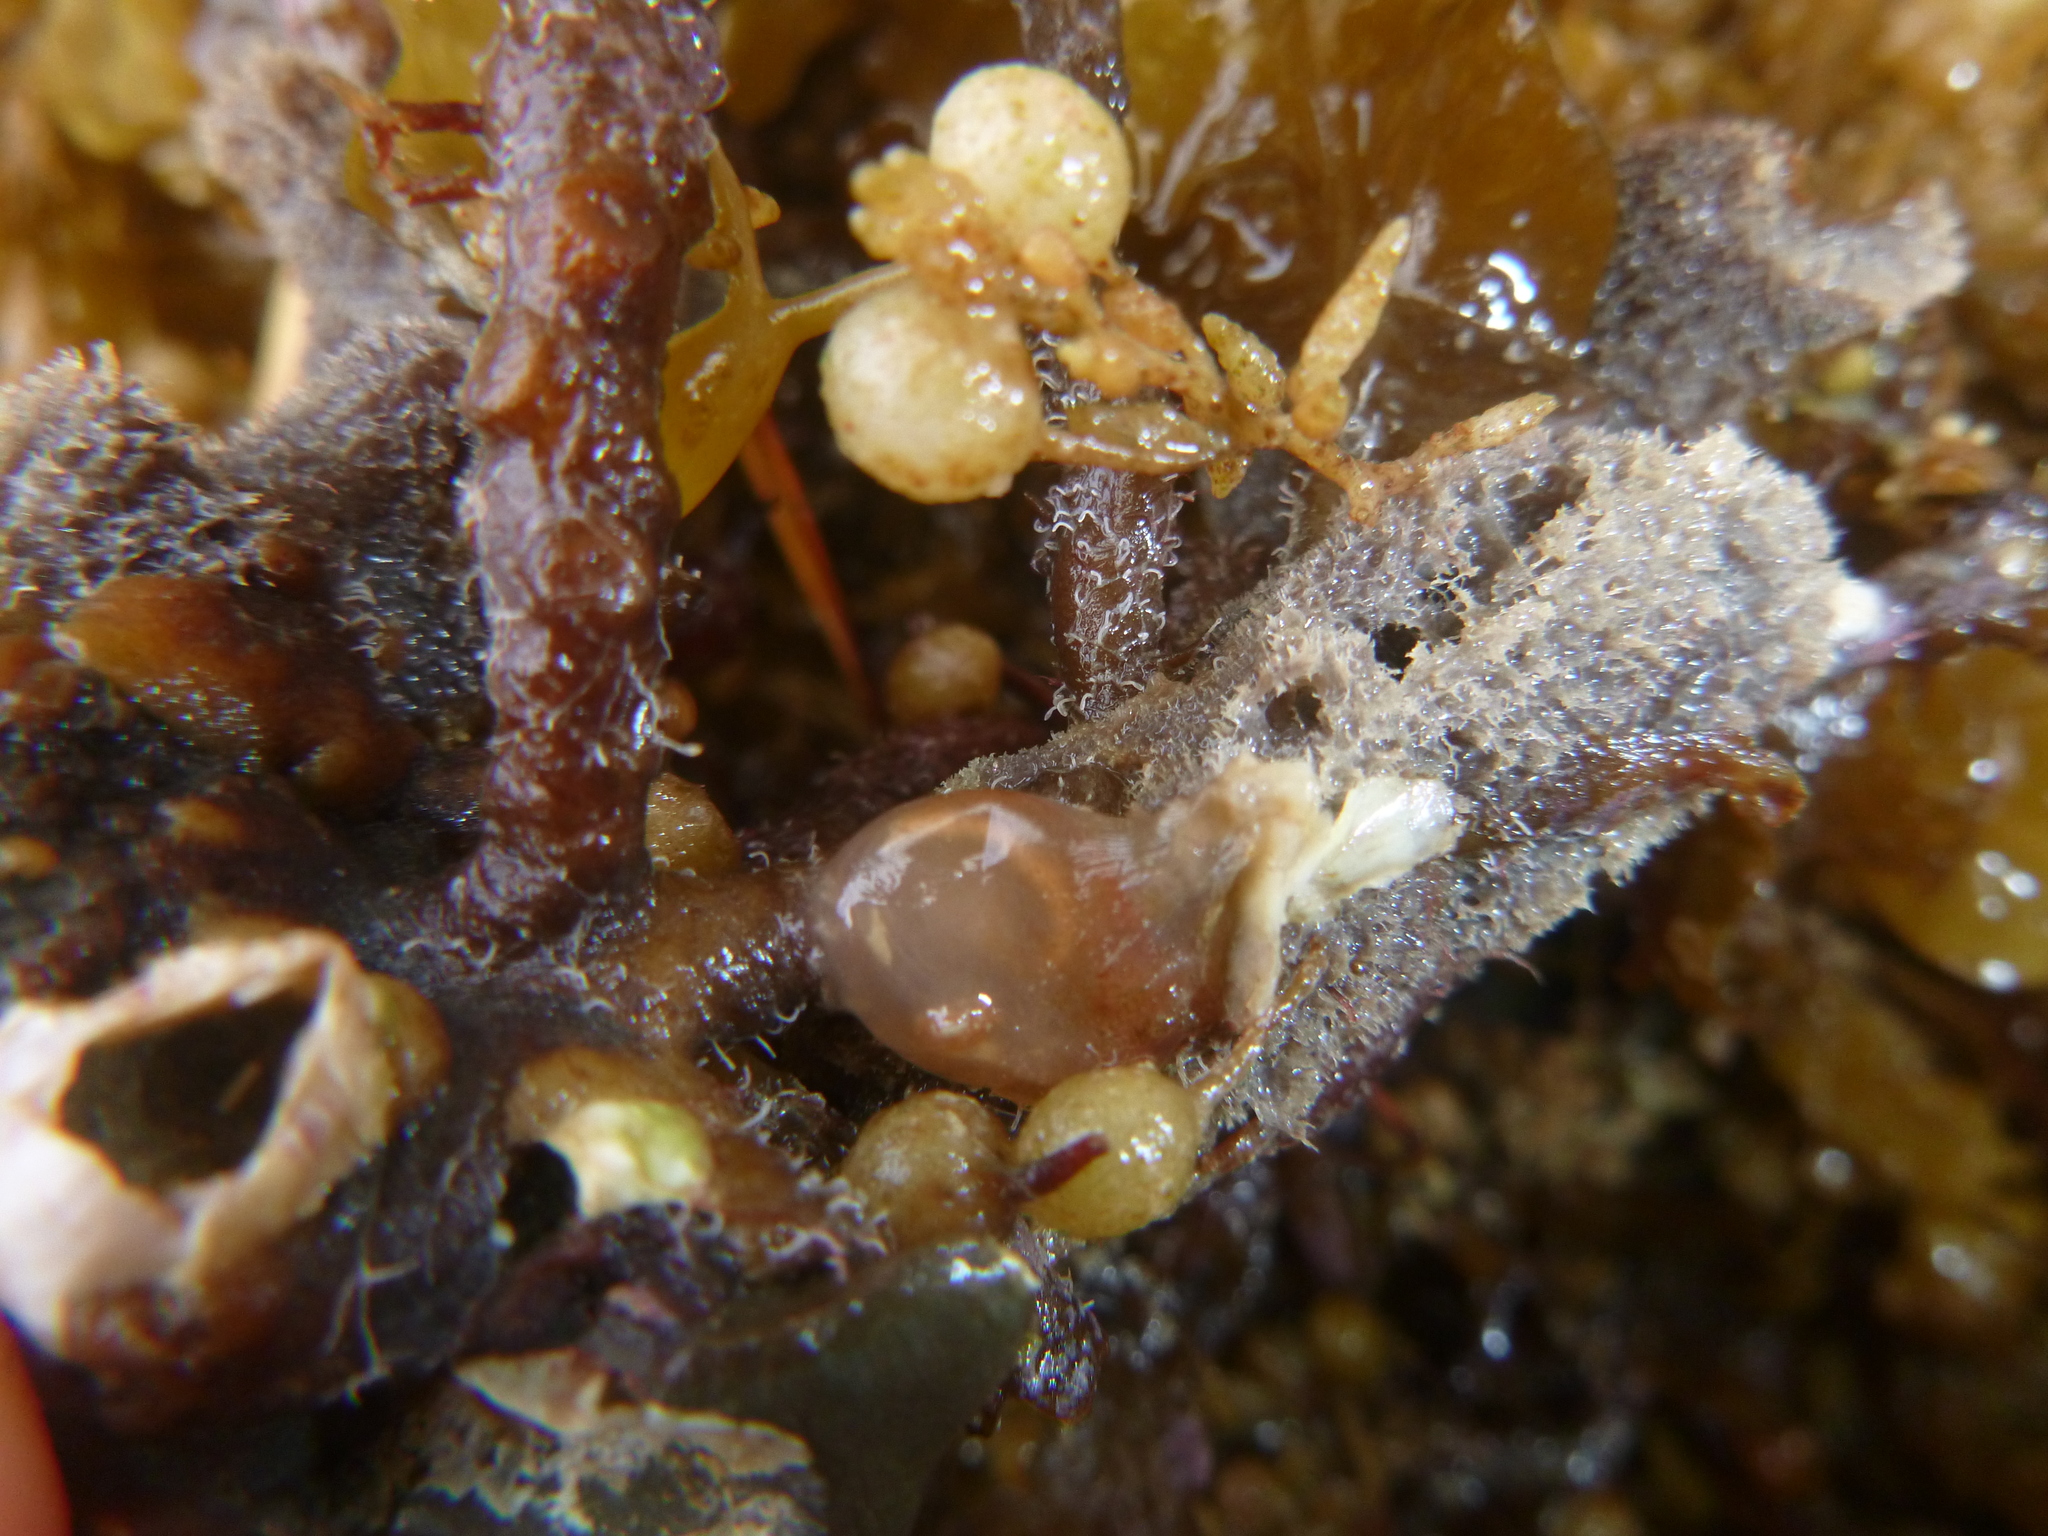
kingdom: Animalia
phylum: Chordata
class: Ascidiacea
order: Phlebobranchia
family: Corellidae
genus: Corella
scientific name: Corella eumyota
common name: Orange-tipped sea squirt
